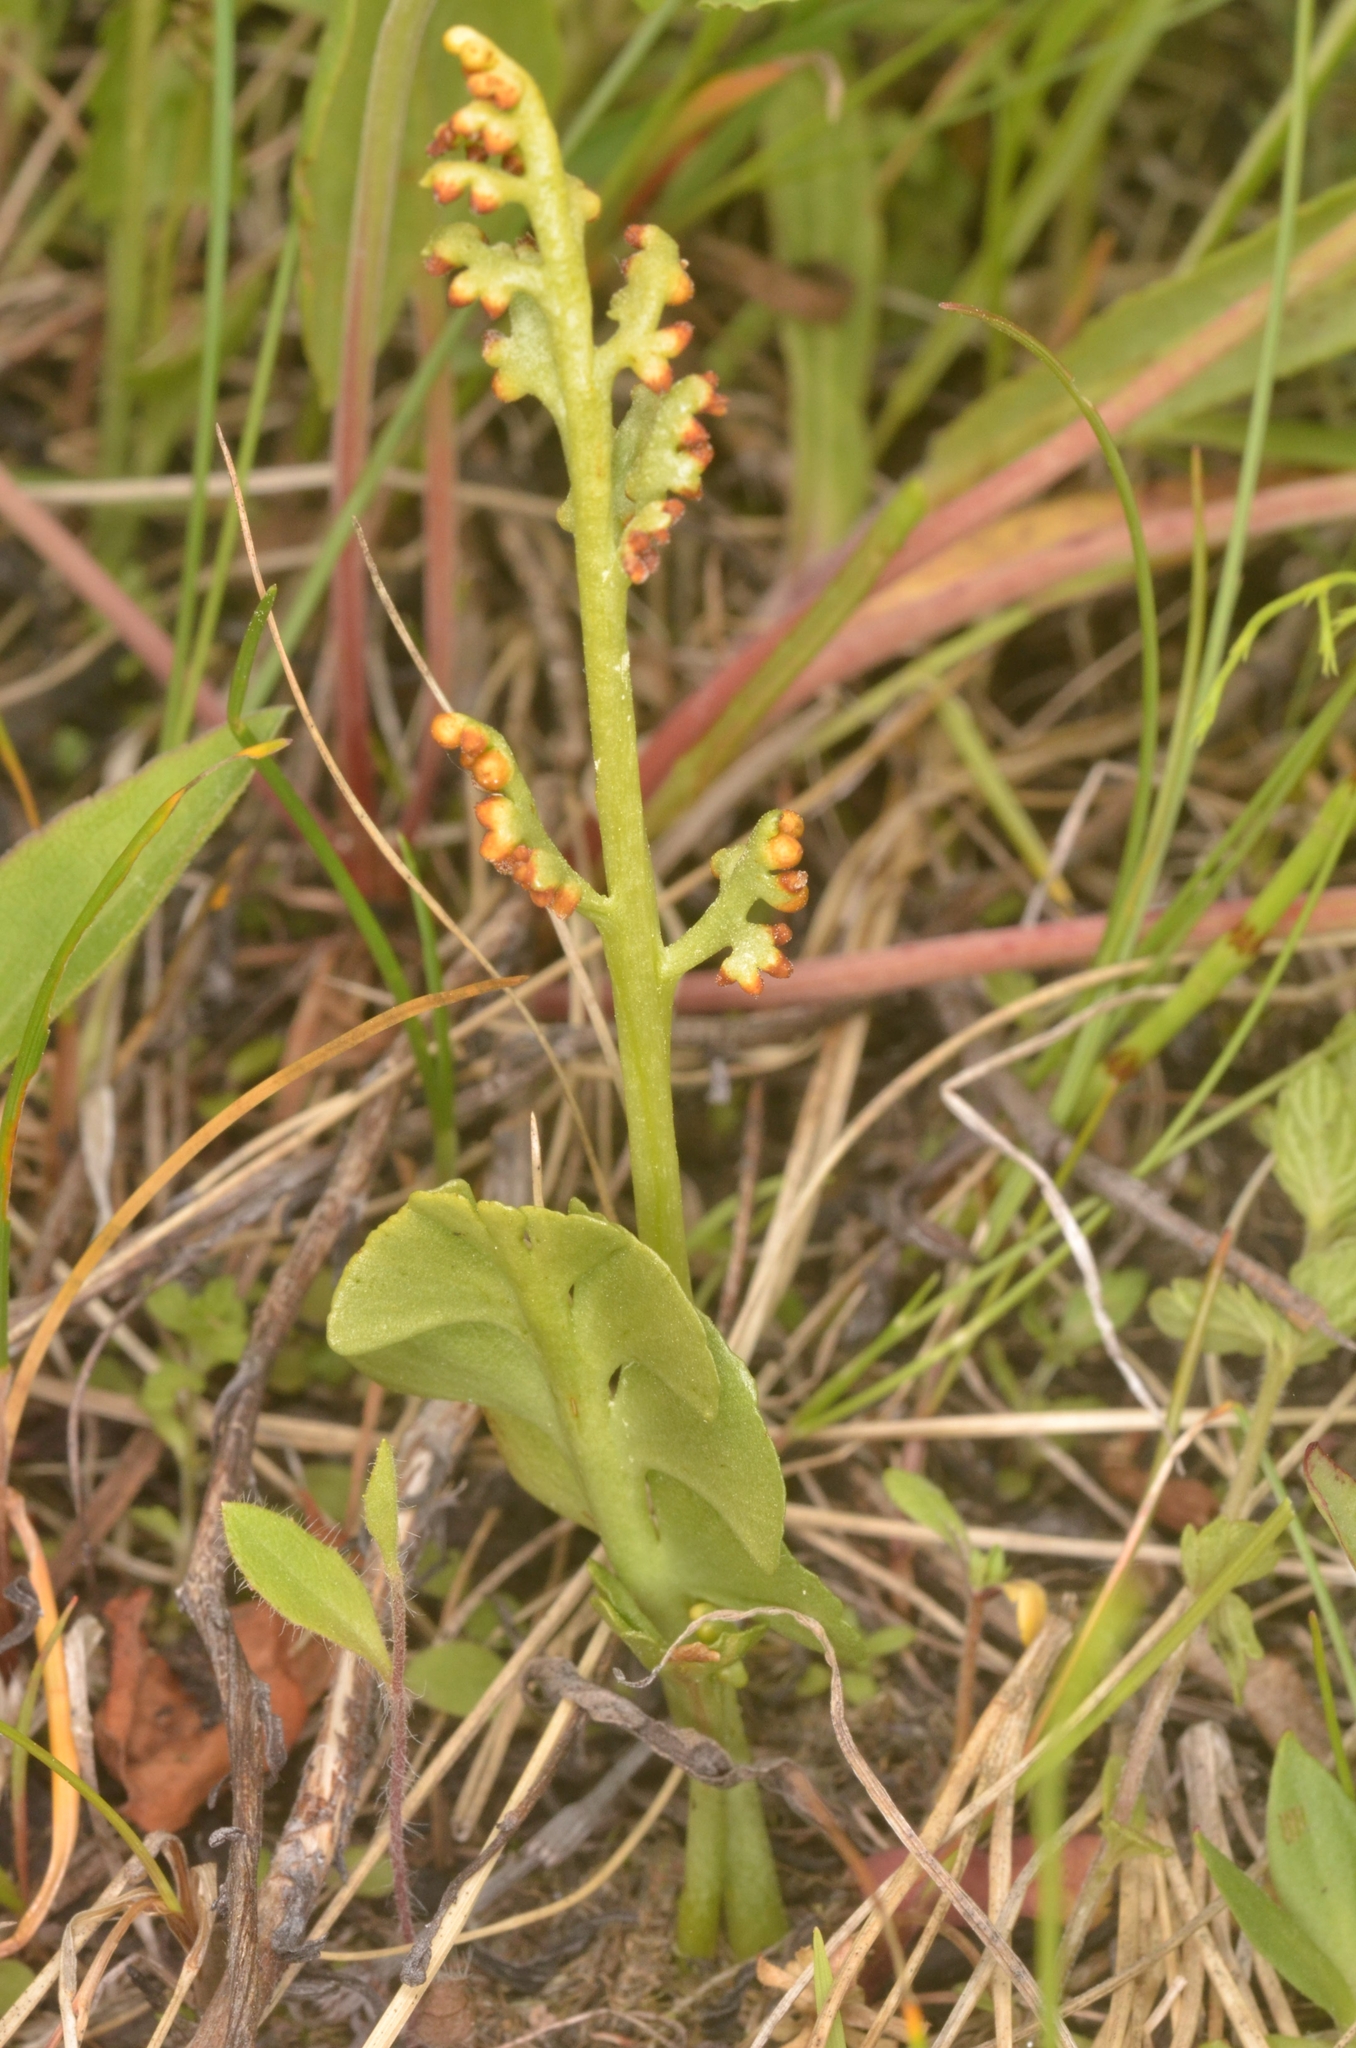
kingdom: Plantae
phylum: Tracheophyta
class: Polypodiopsida
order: Ophioglossales
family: Ophioglossaceae
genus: Botrychium
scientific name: Botrychium lunaria
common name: Moonwort
